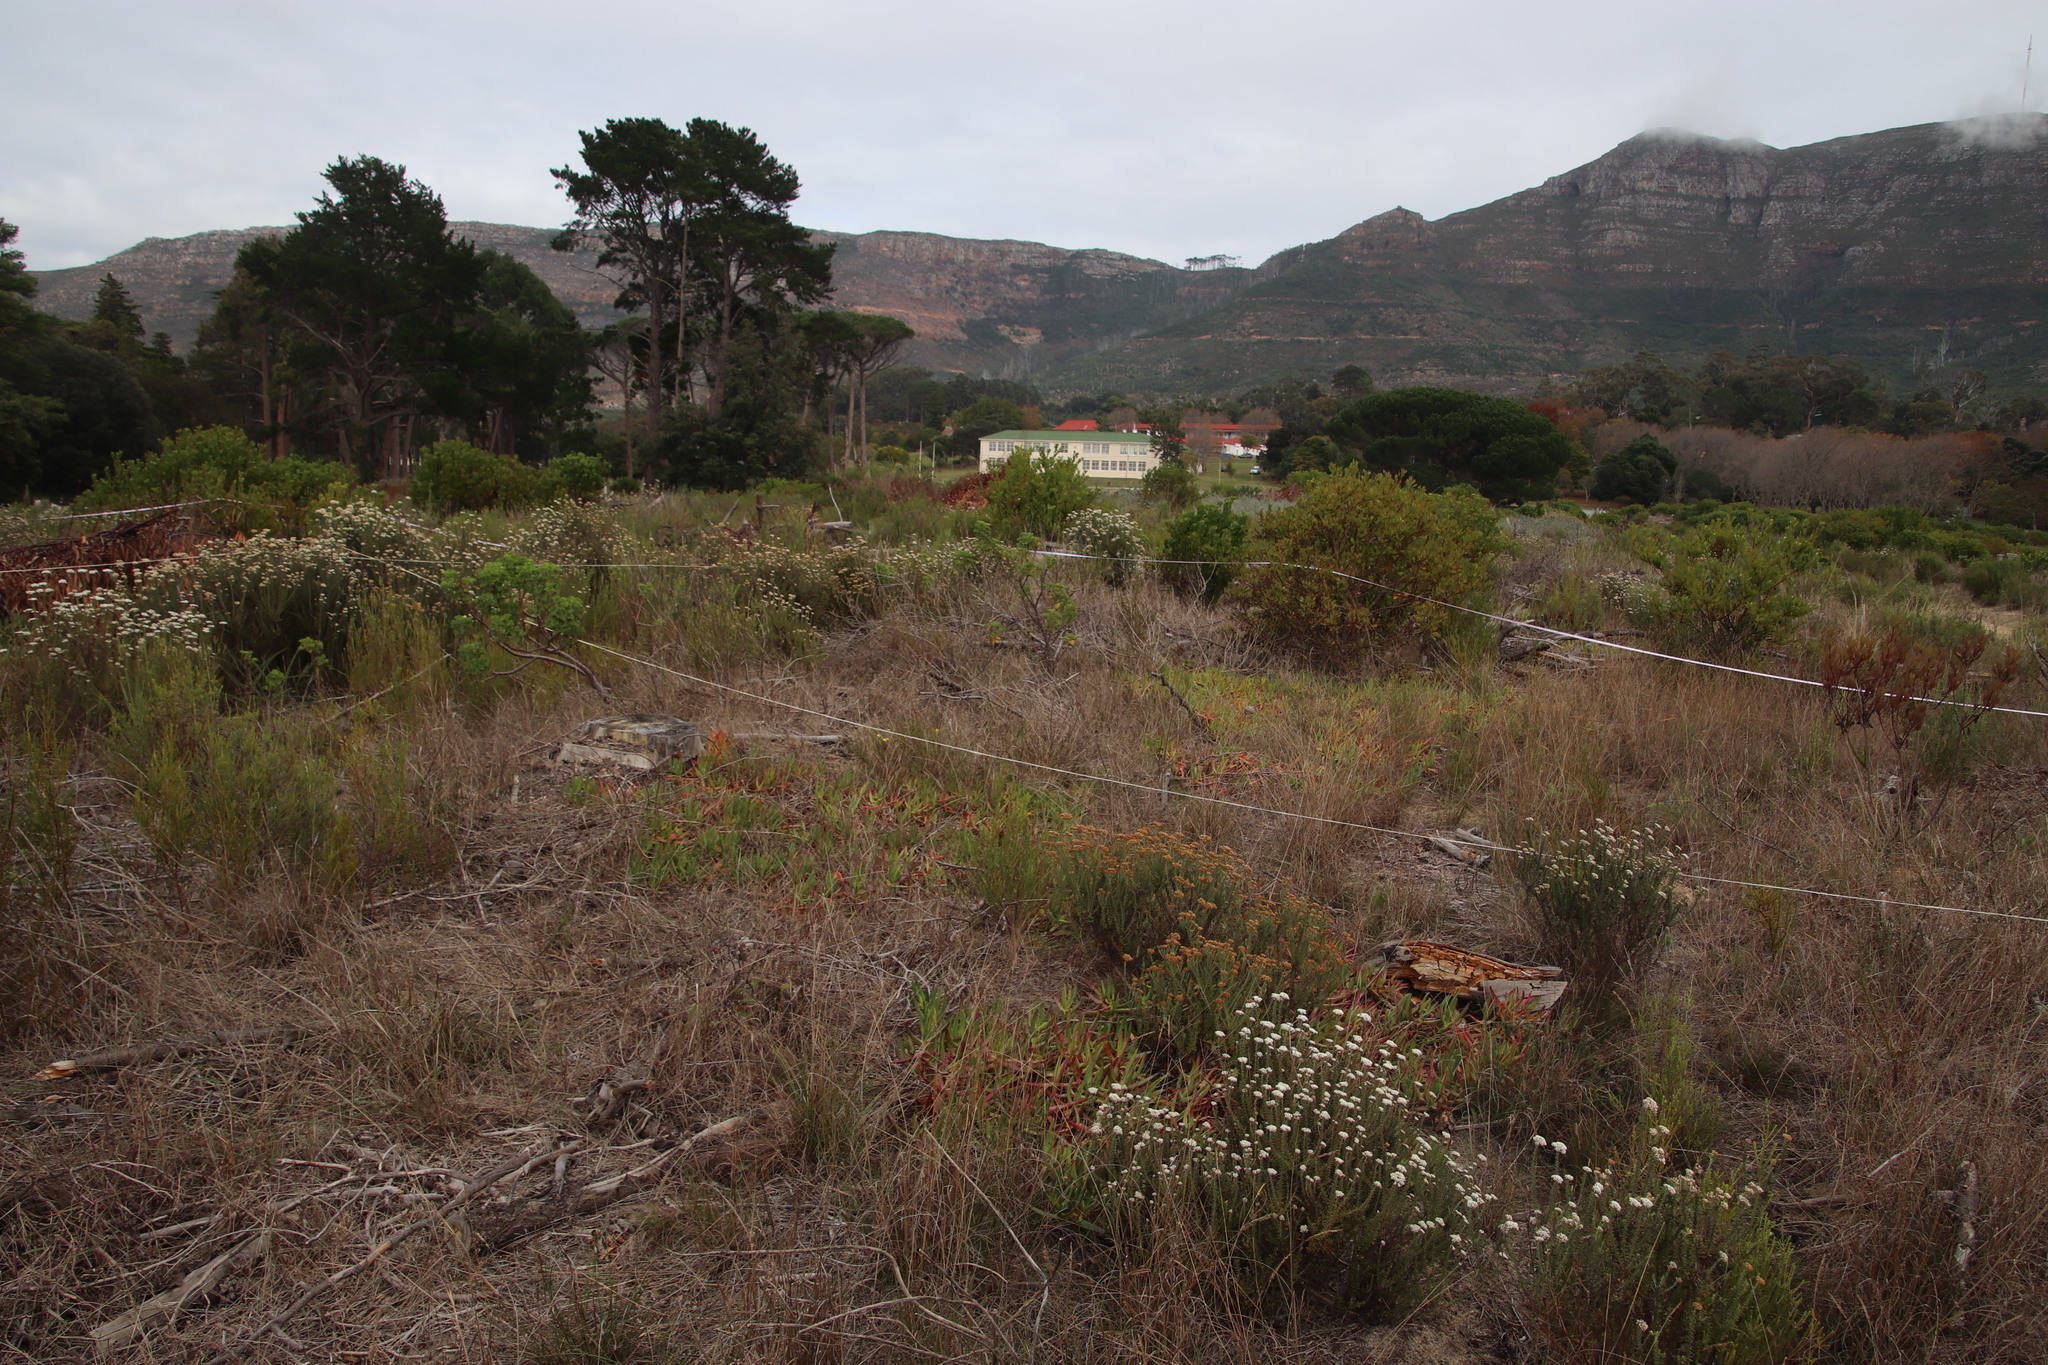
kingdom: Plantae
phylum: Tracheophyta
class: Magnoliopsida
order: Caryophyllales
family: Aizoaceae
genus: Carpobrotus
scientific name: Carpobrotus edulis
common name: Hottentot-fig
